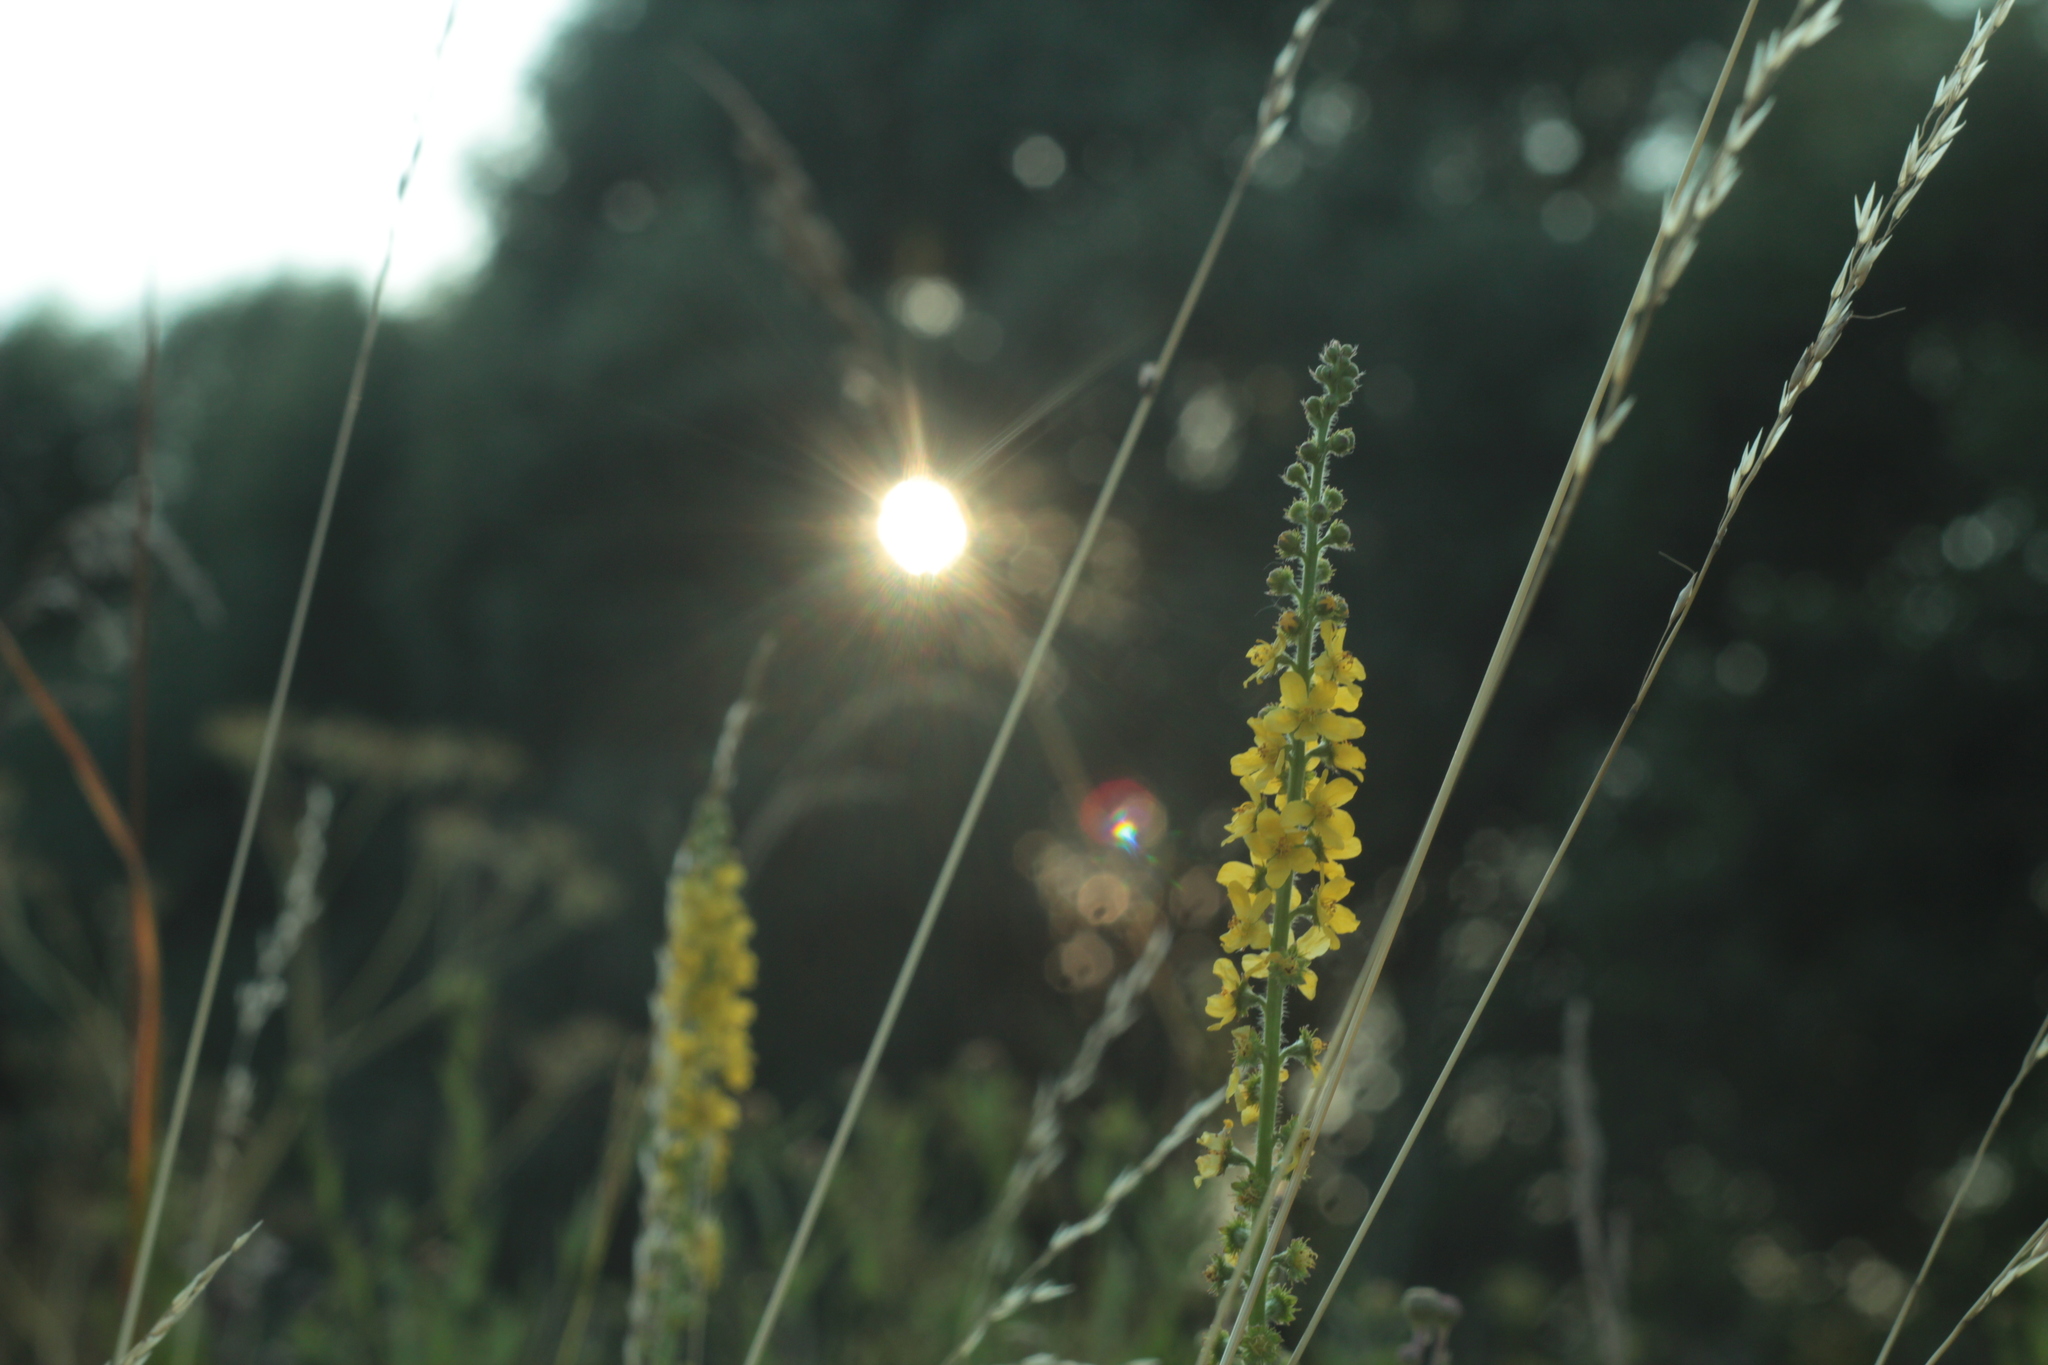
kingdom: Plantae
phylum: Tracheophyta
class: Magnoliopsida
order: Rosales
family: Rosaceae
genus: Agrimonia
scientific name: Agrimonia eupatoria
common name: Agrimony
